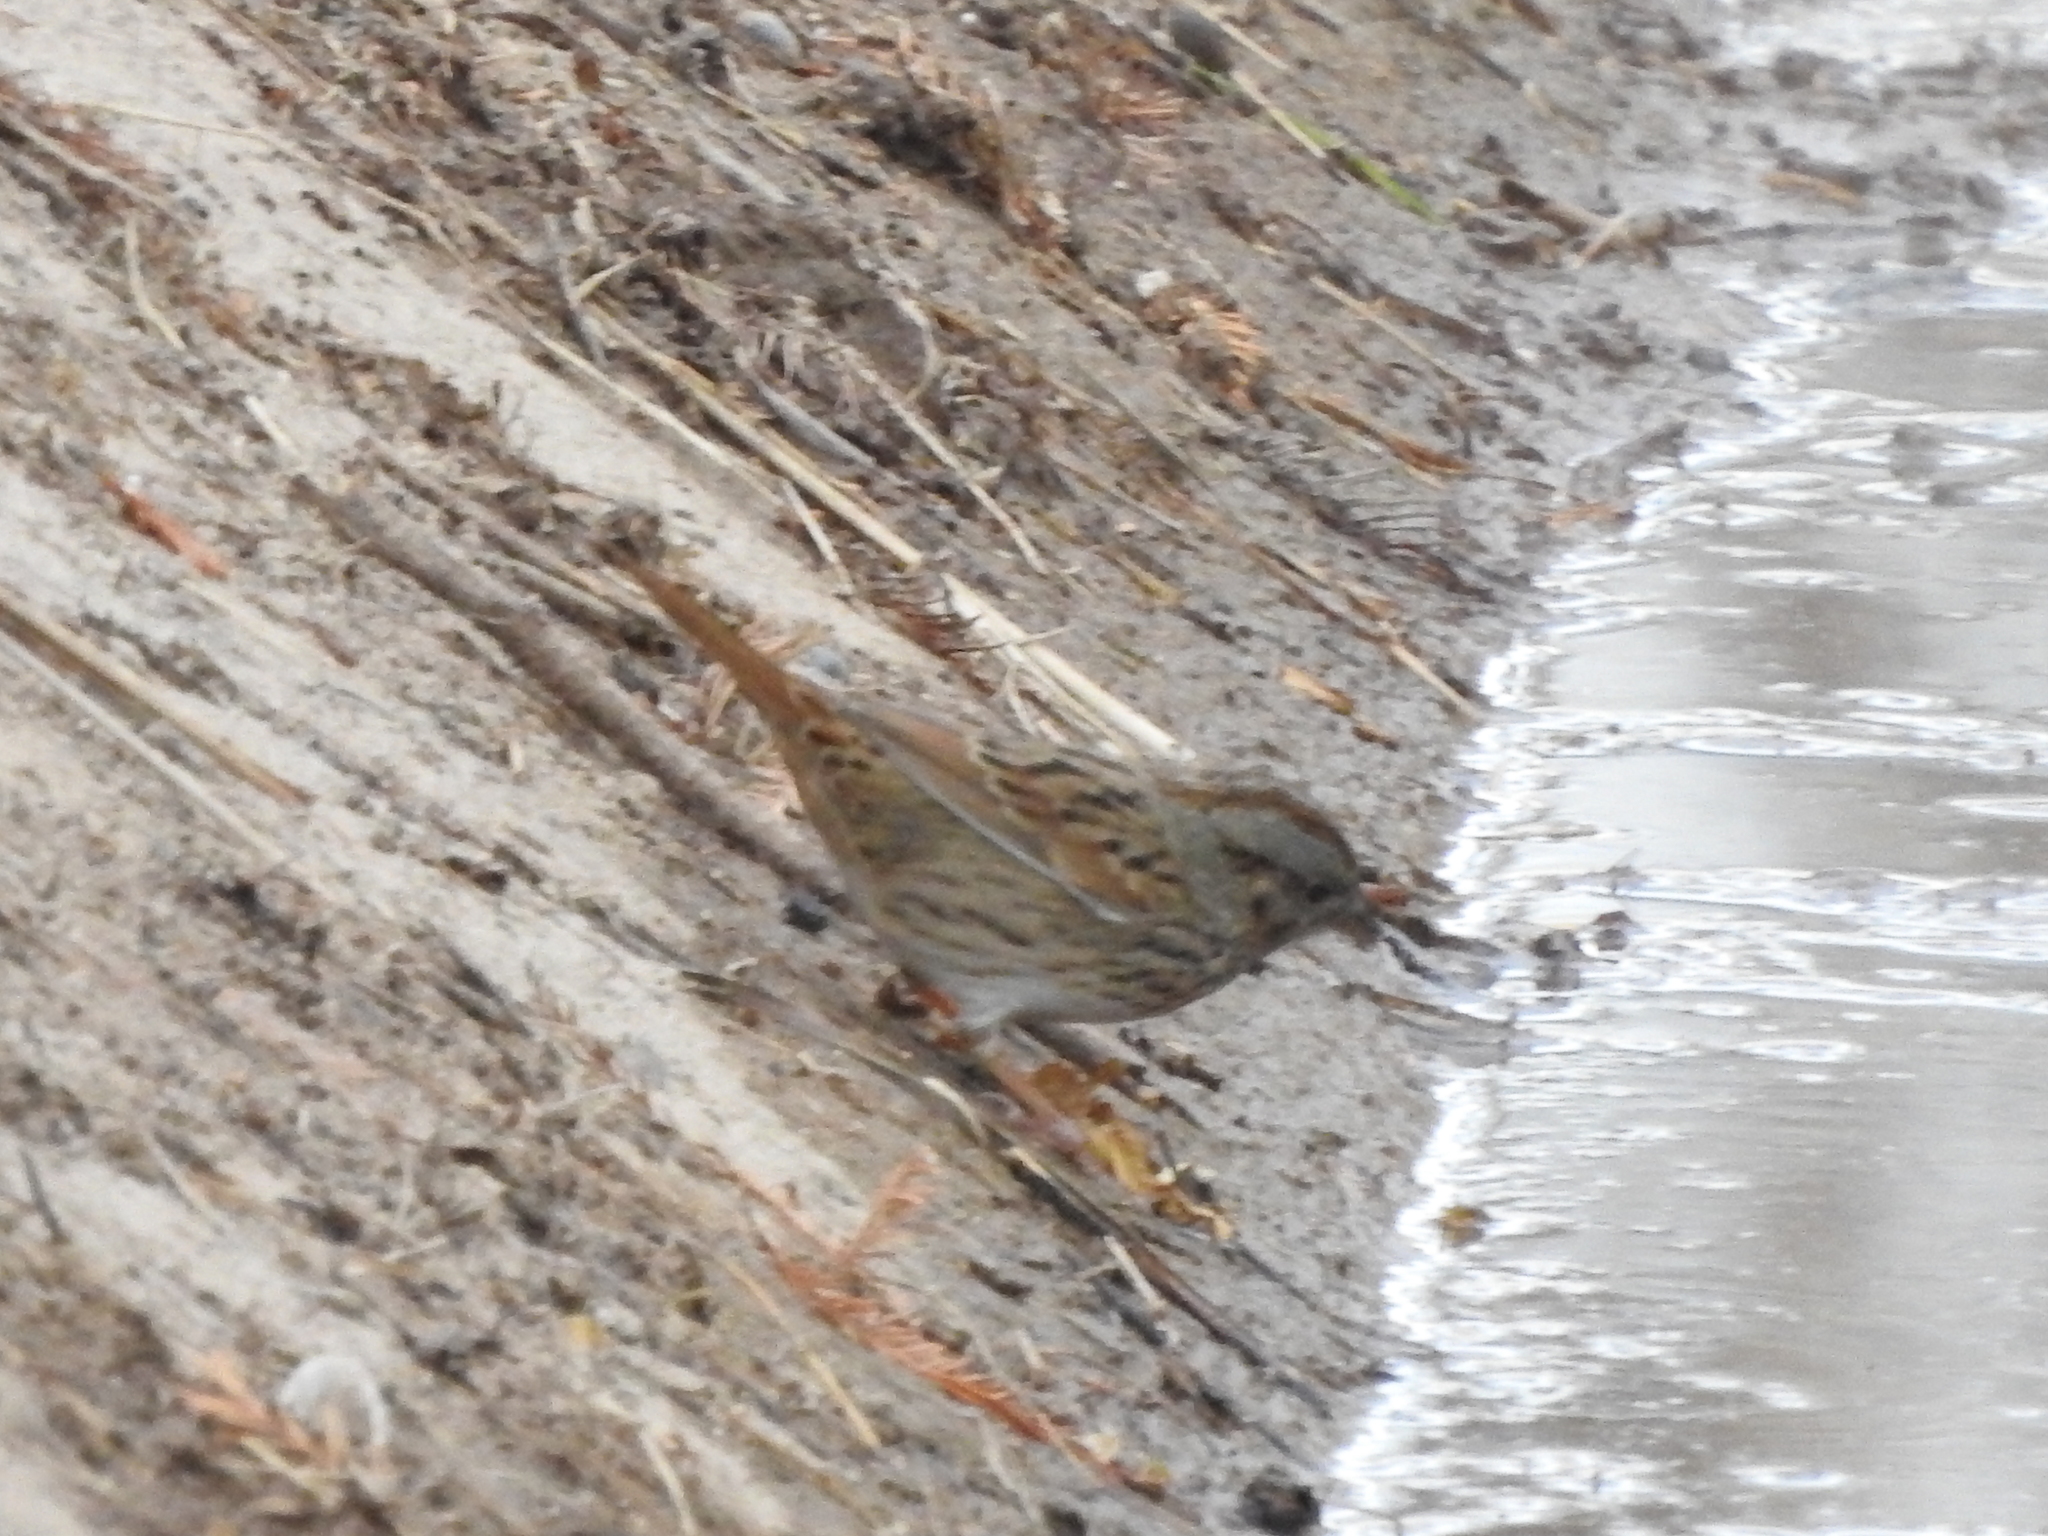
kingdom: Animalia
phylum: Chordata
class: Aves
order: Passeriformes
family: Passerellidae
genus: Melospiza
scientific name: Melospiza lincolnii
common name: Lincoln's sparrow
